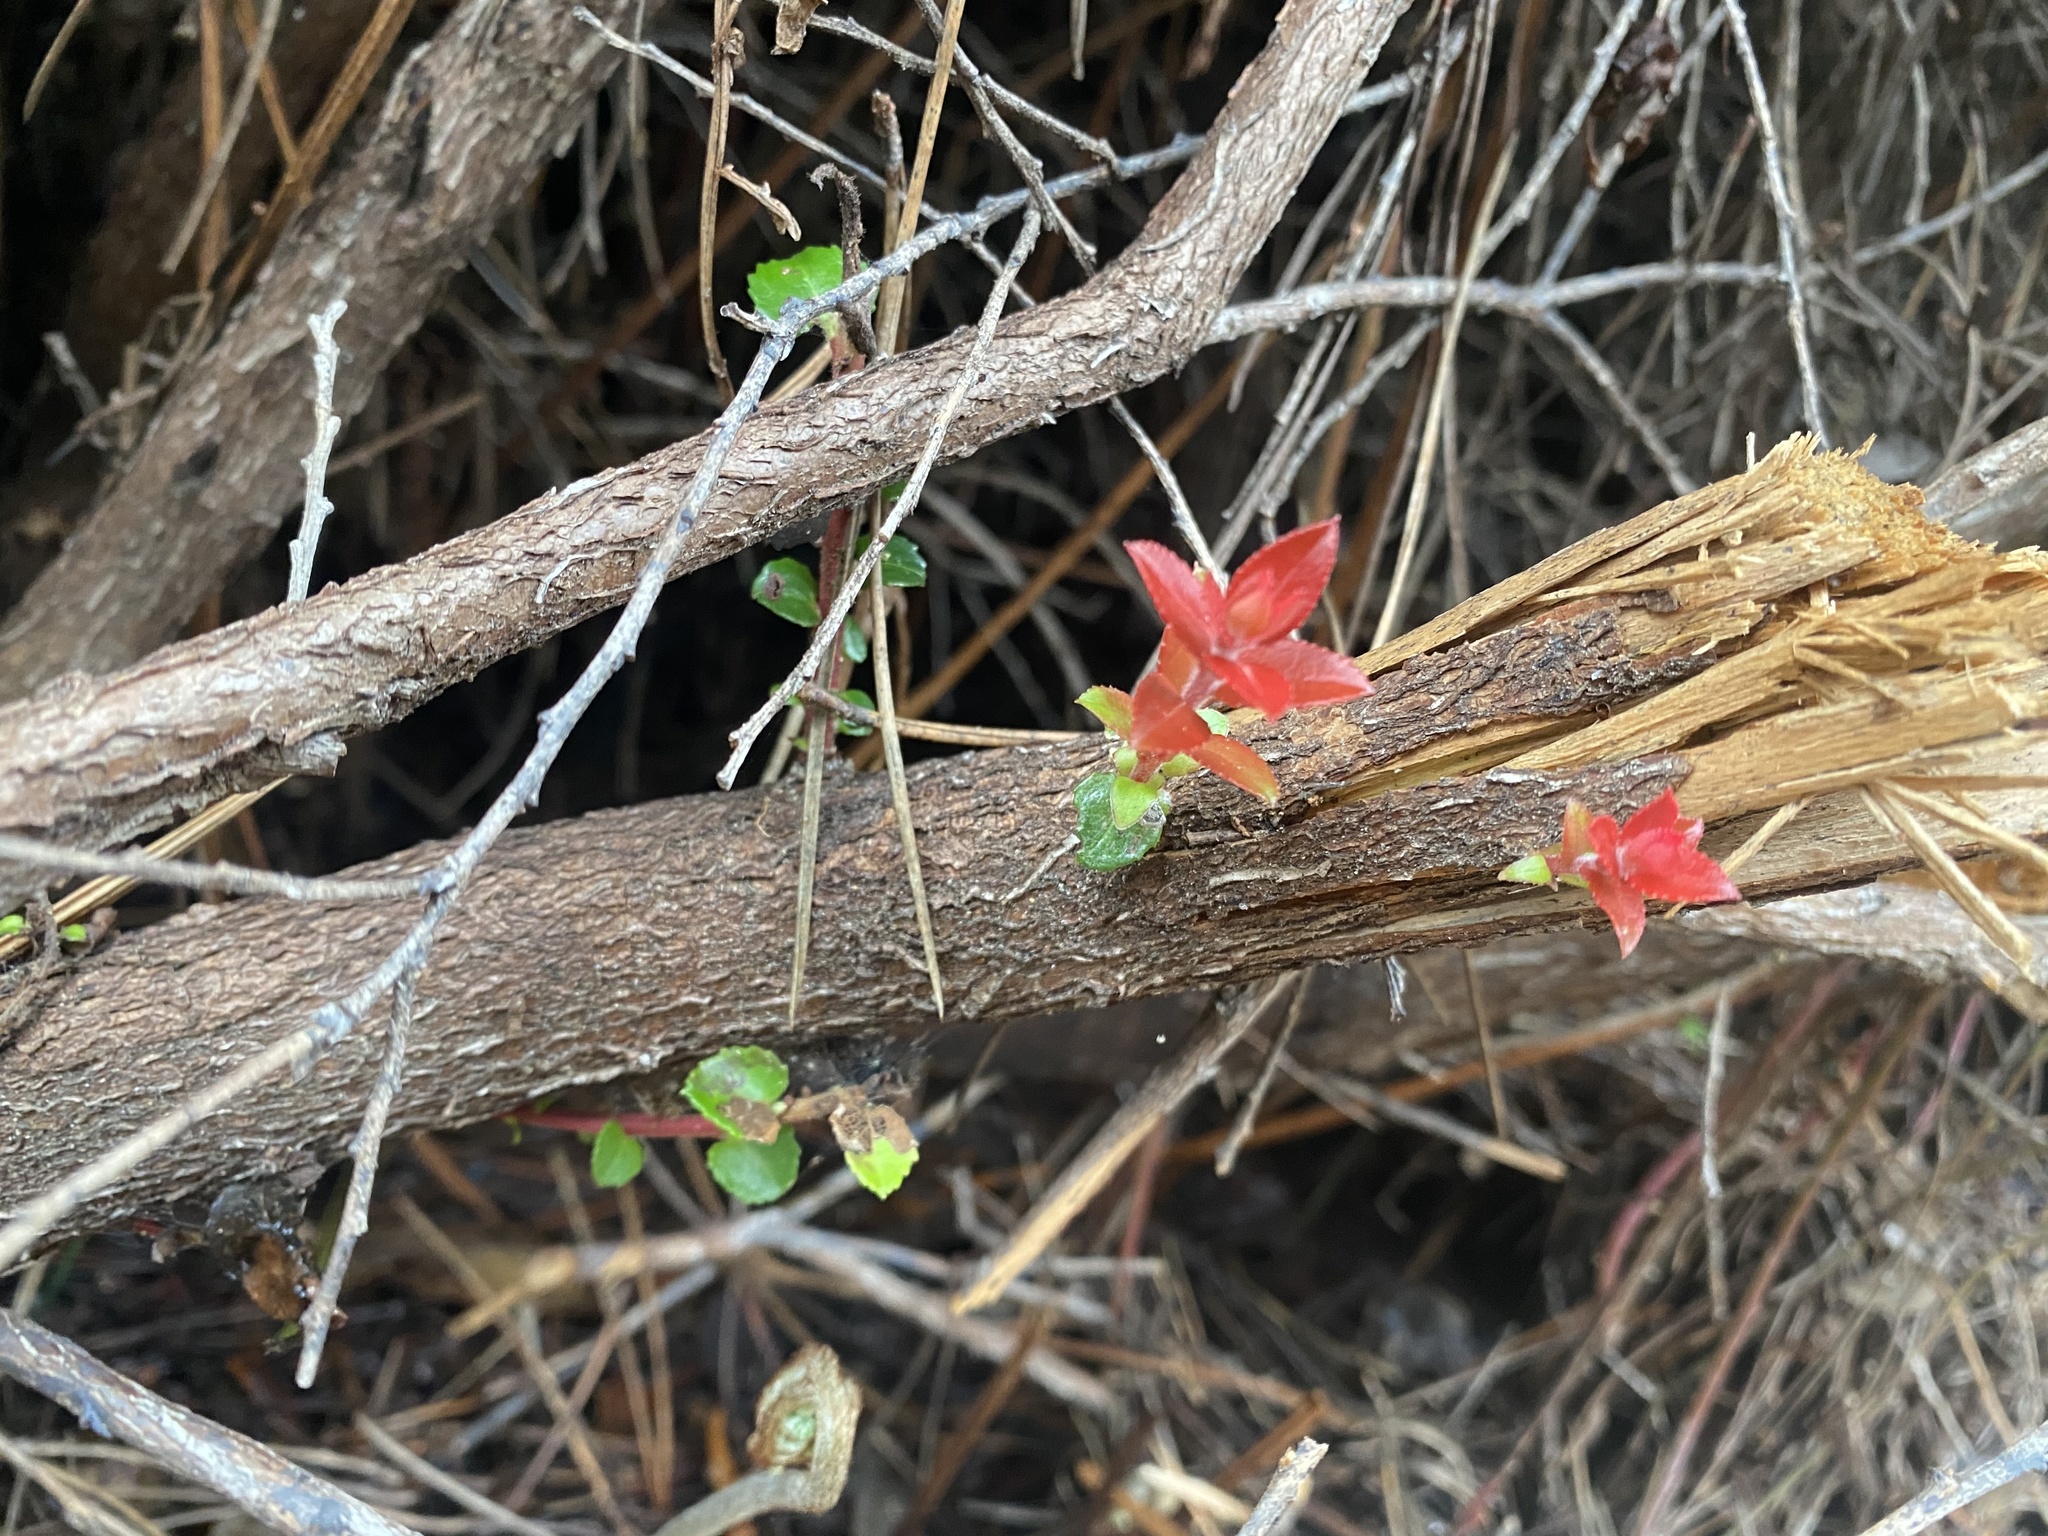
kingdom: Plantae
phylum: Tracheophyta
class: Magnoliopsida
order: Ericales
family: Ericaceae
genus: Vaccinium
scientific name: Vaccinium ovatum
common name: California-huckleberry
